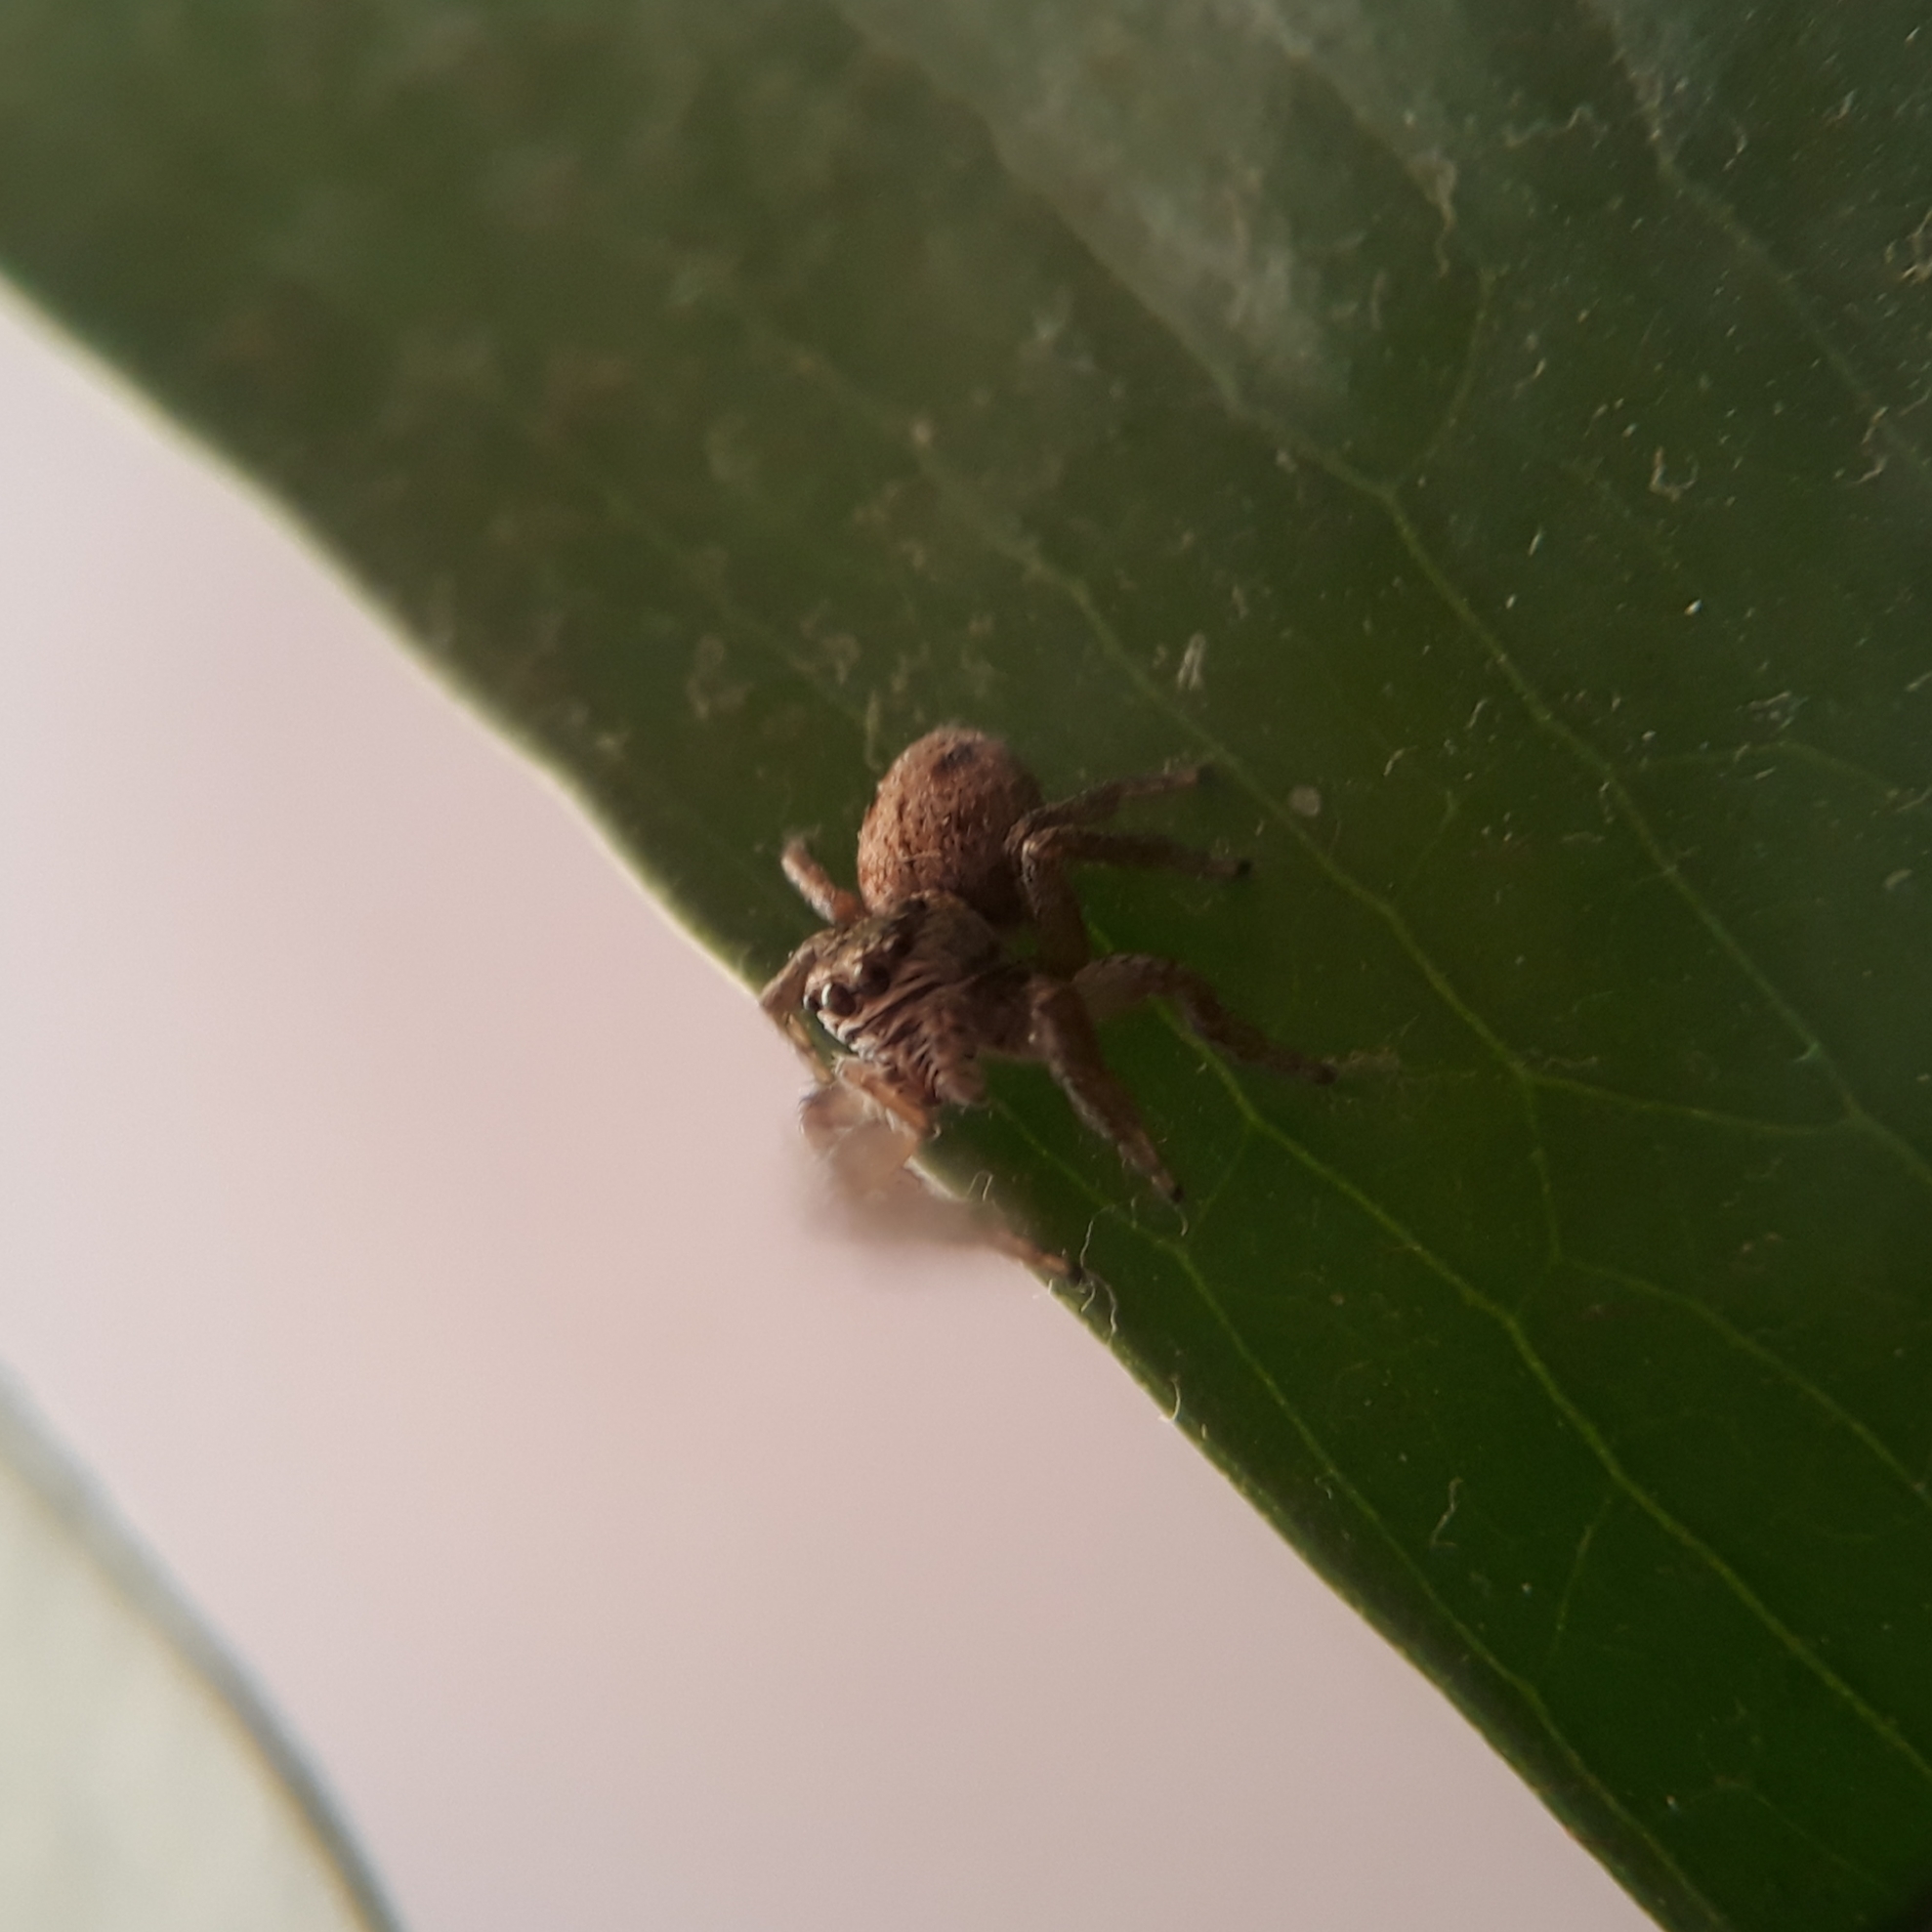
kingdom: Animalia
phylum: Arthropoda
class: Arachnida
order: Araneae
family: Salticidae
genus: Evarcha
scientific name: Evarcha arcuata
